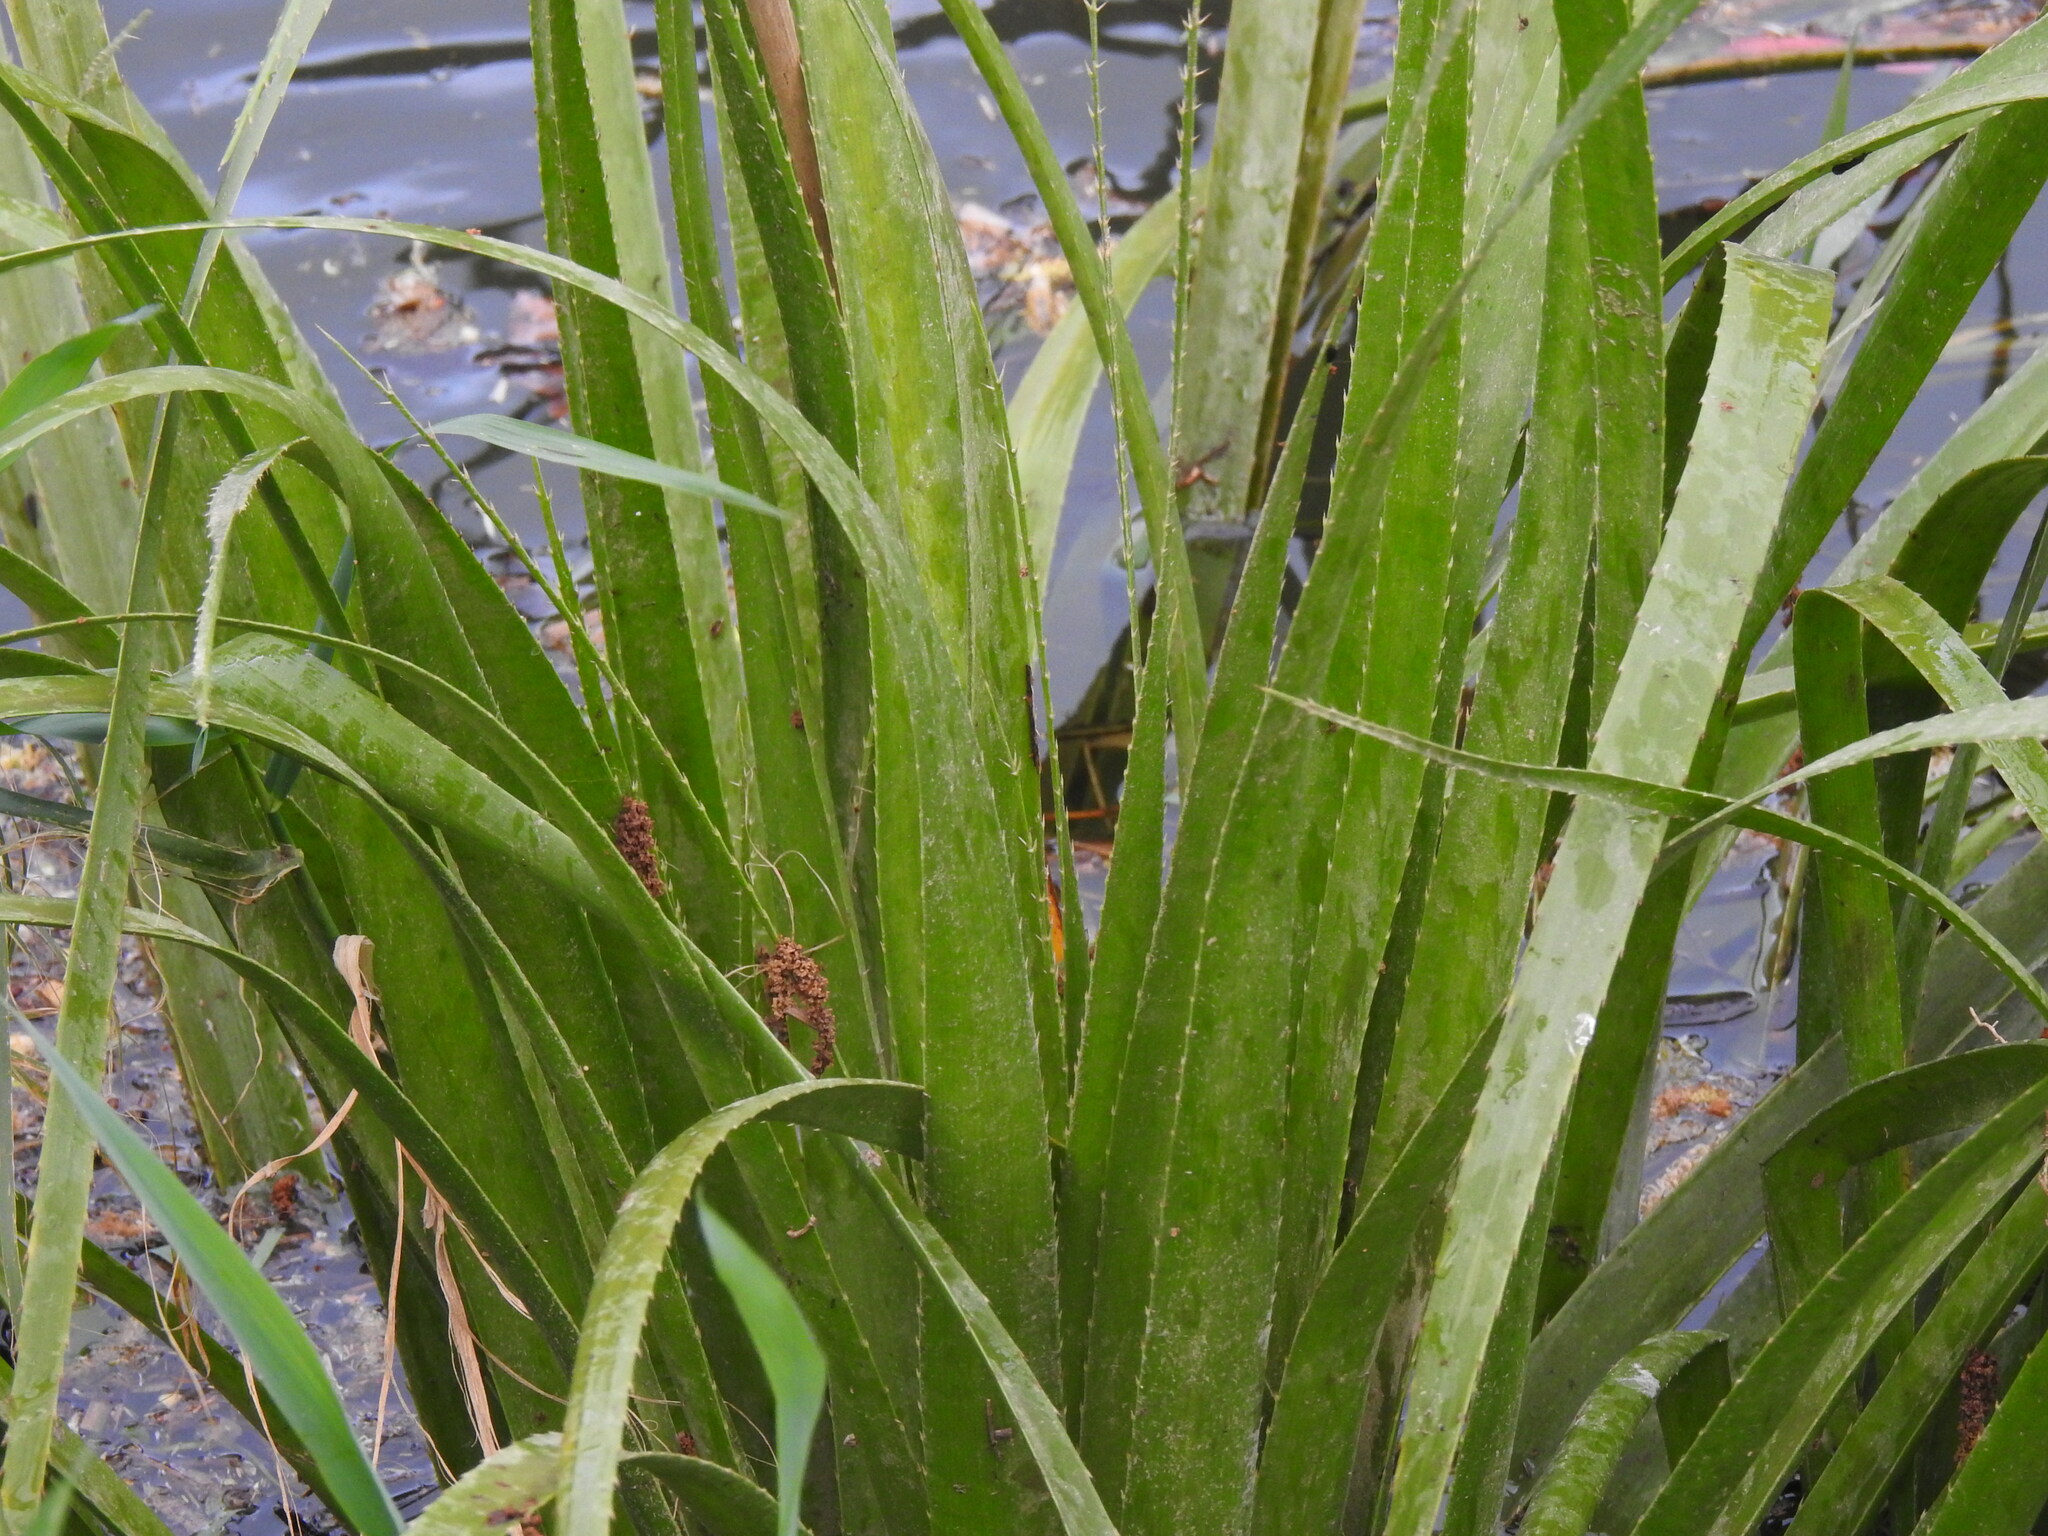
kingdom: Plantae
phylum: Tracheophyta
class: Magnoliopsida
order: Apiales
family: Apiaceae
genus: Eryngium
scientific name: Eryngium pandanifolium
